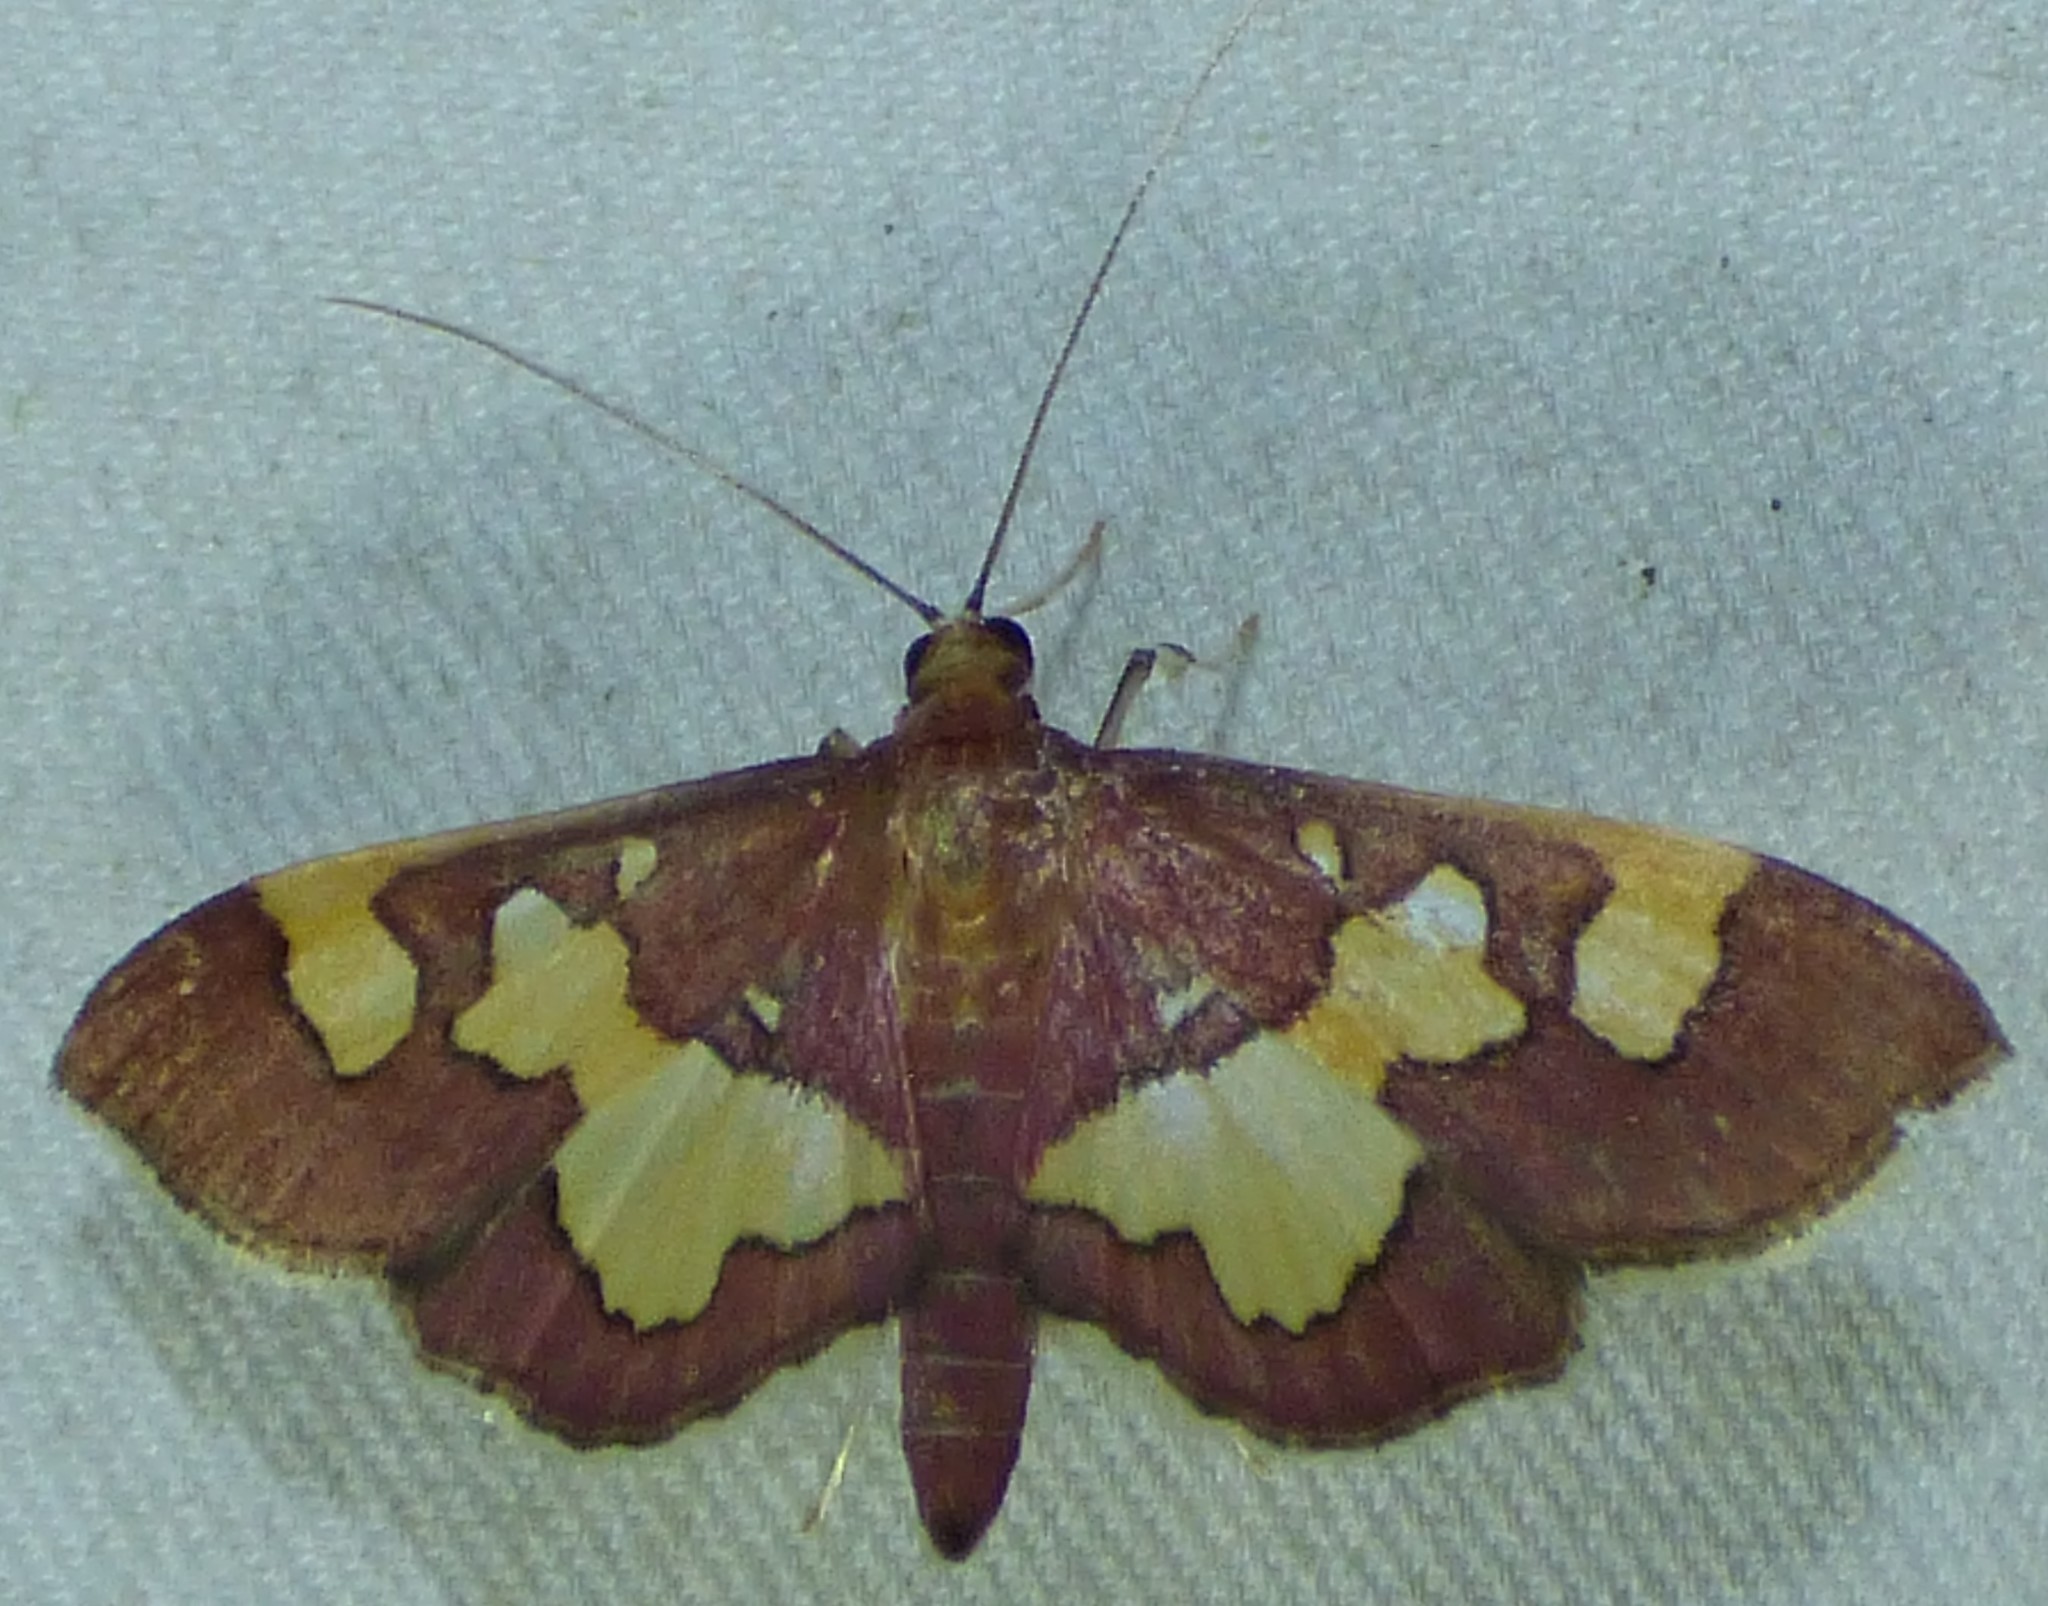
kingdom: Animalia
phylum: Arthropoda
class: Insecta
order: Lepidoptera
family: Crambidae
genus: Colomychus
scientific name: Colomychus talis
